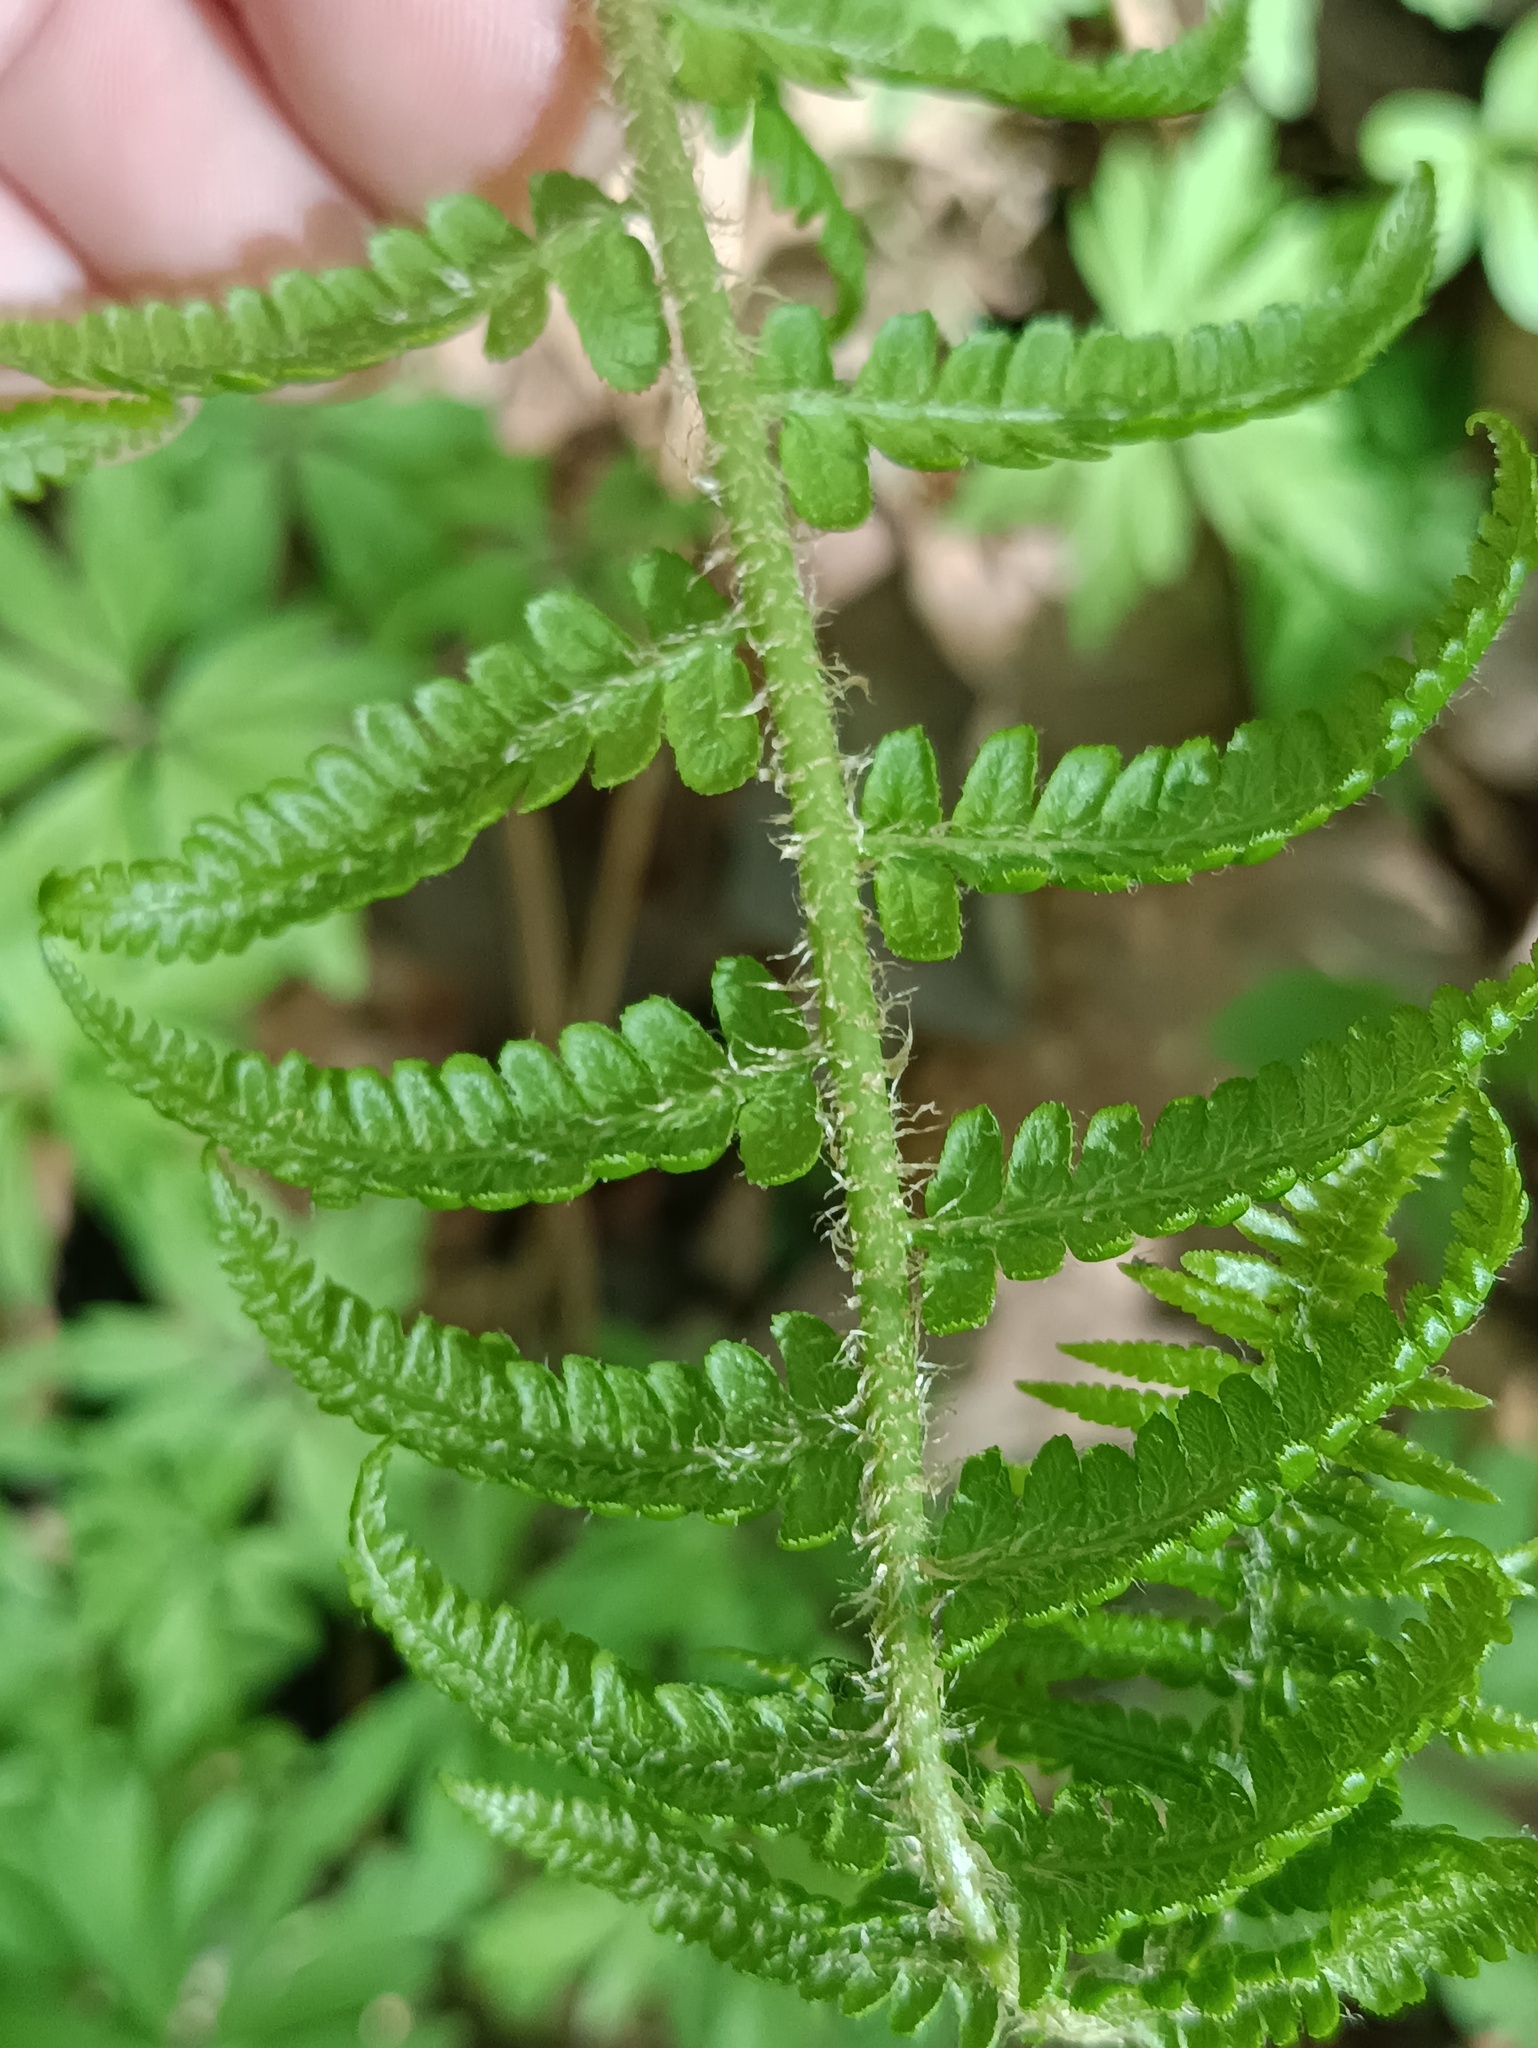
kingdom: Plantae
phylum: Tracheophyta
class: Polypodiopsida
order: Polypodiales
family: Dryopteridaceae
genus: Dryopteris
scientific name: Dryopteris filix-mas
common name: Male fern
